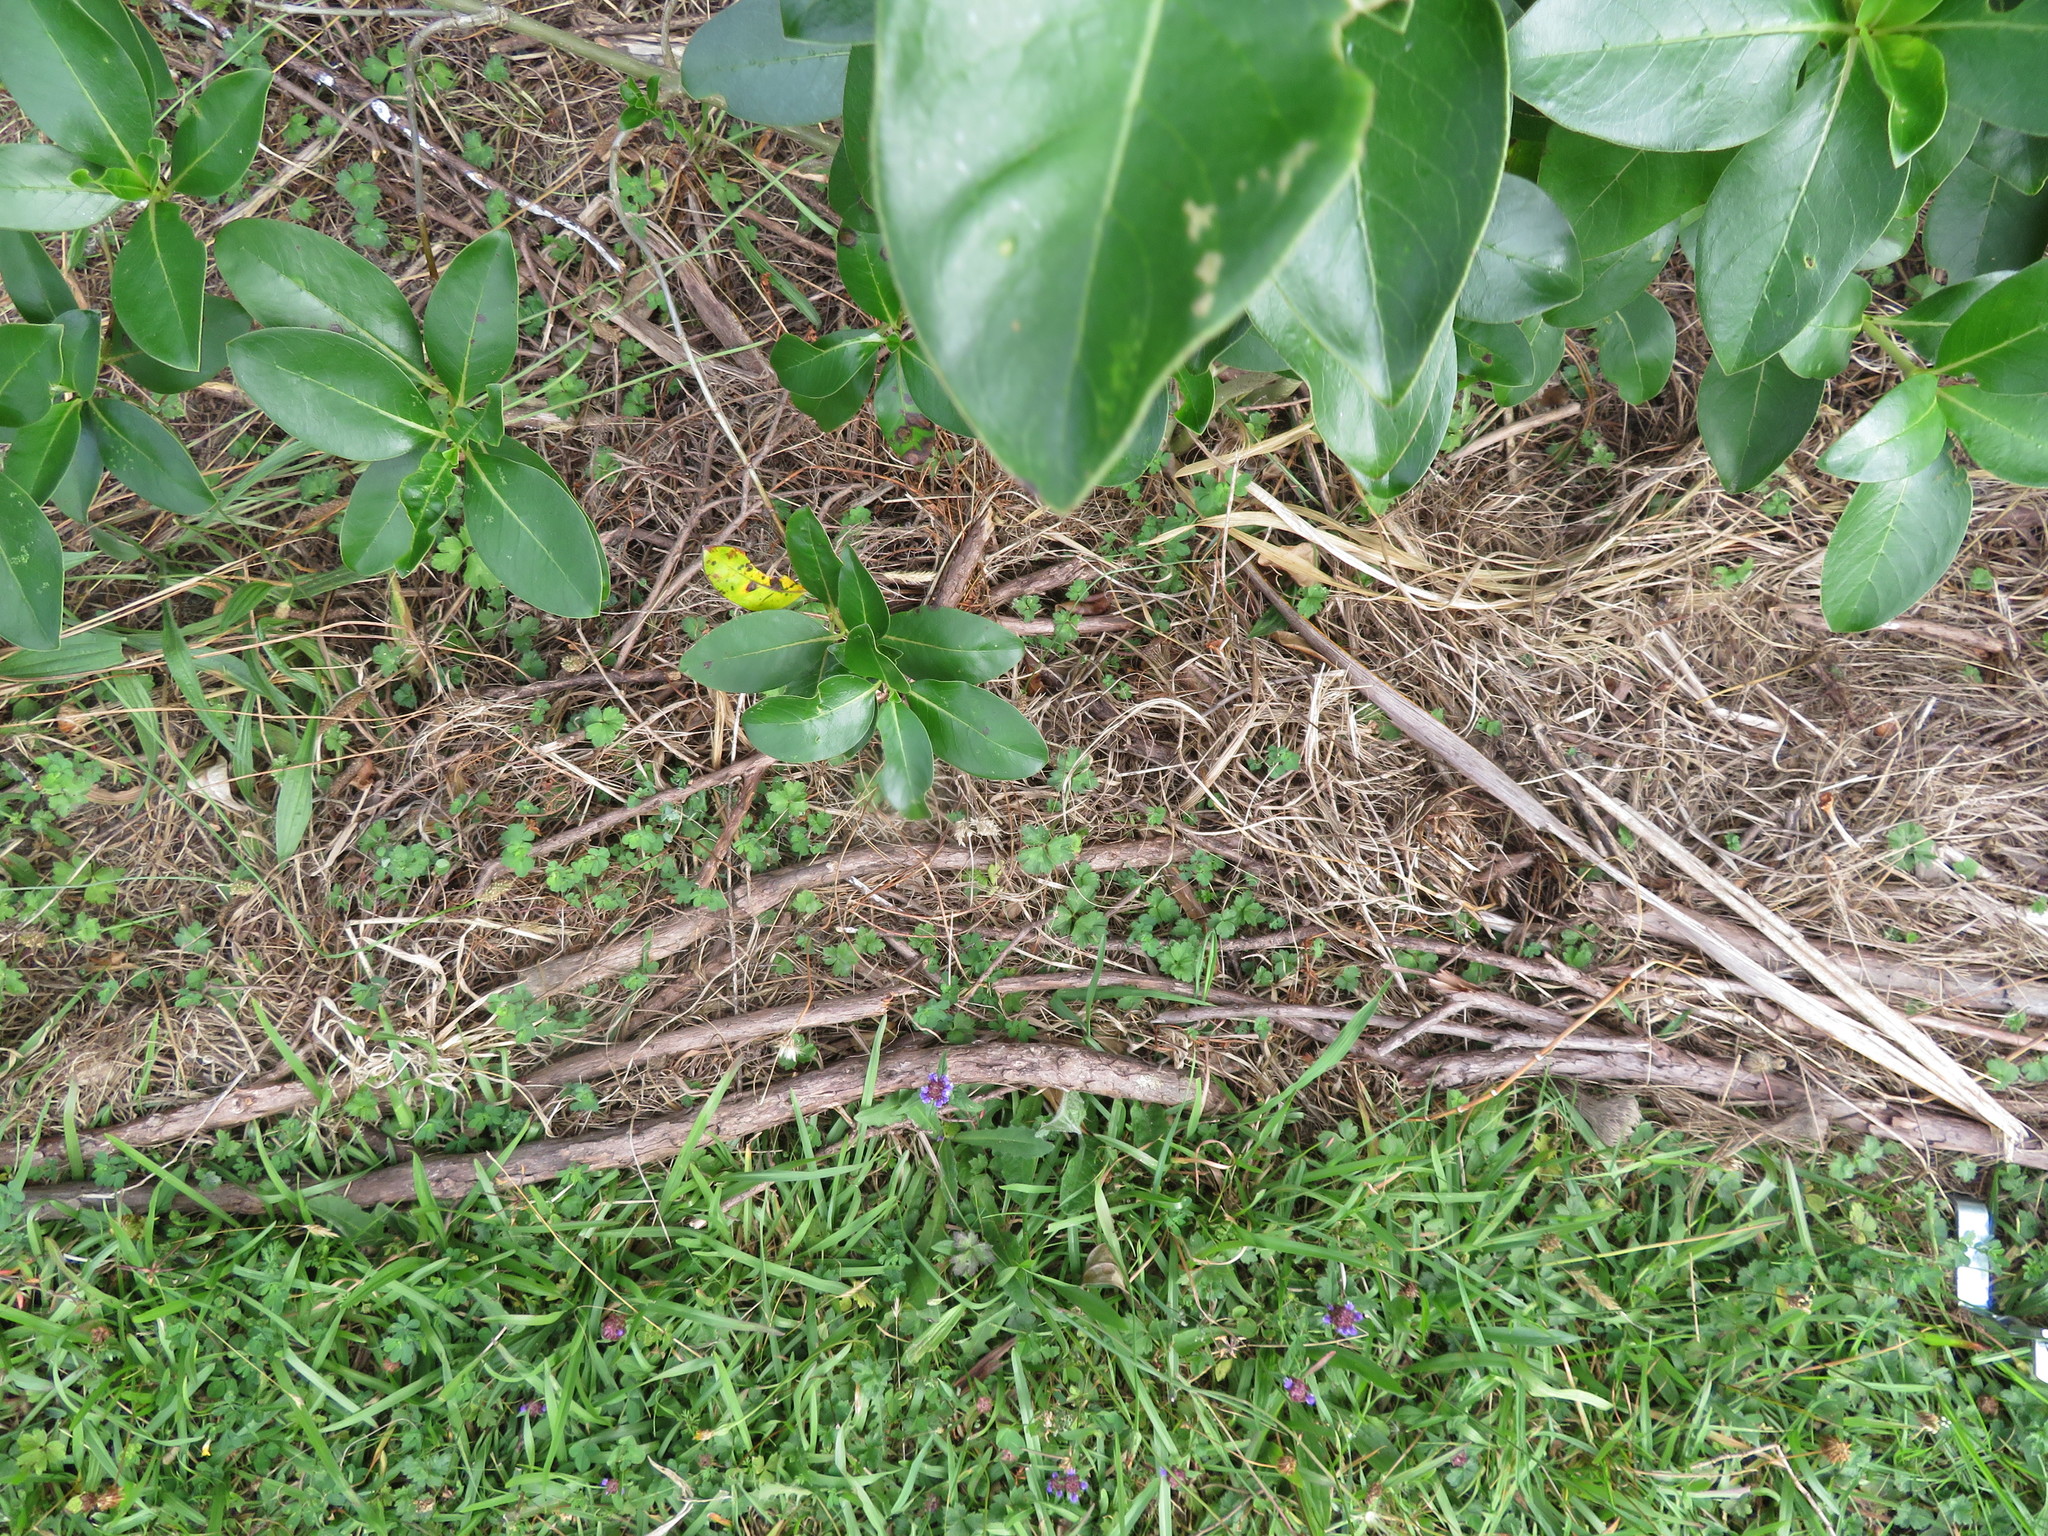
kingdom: Plantae
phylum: Tracheophyta
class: Magnoliopsida
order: Lamiales
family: Lamiaceae
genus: Prunella
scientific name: Prunella vulgaris
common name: Heal-all
